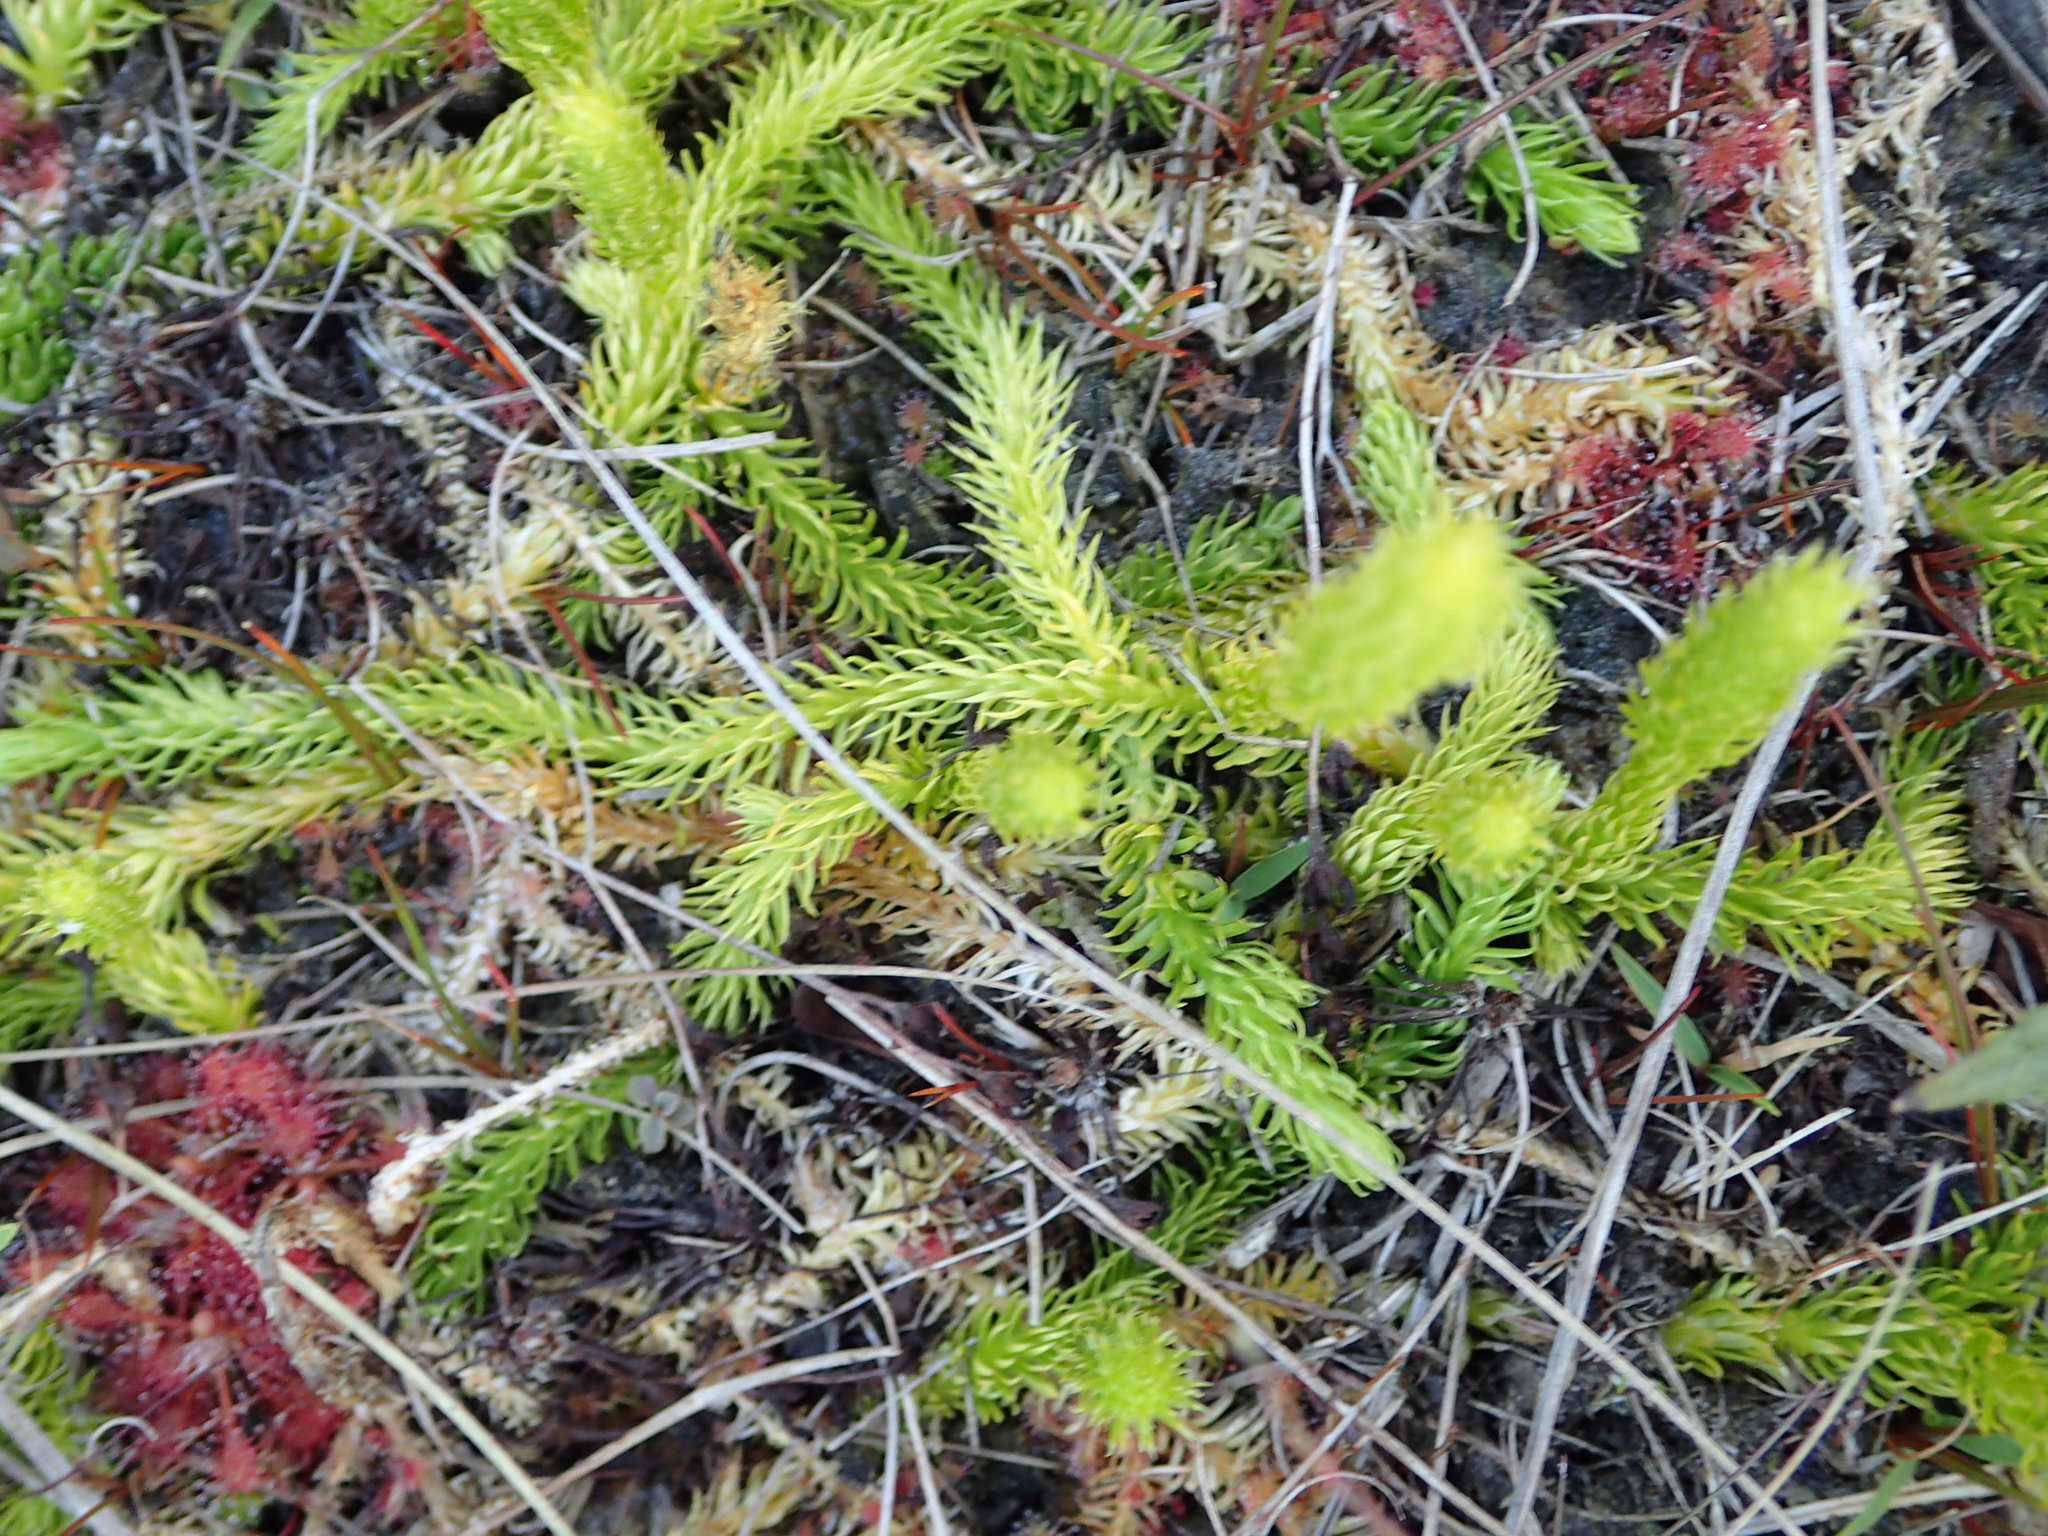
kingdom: Plantae
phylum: Tracheophyta
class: Lycopodiopsida
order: Lycopodiales
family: Lycopodiaceae
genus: Lycopodiella
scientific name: Lycopodiella inundata
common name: Marsh clubmoss
